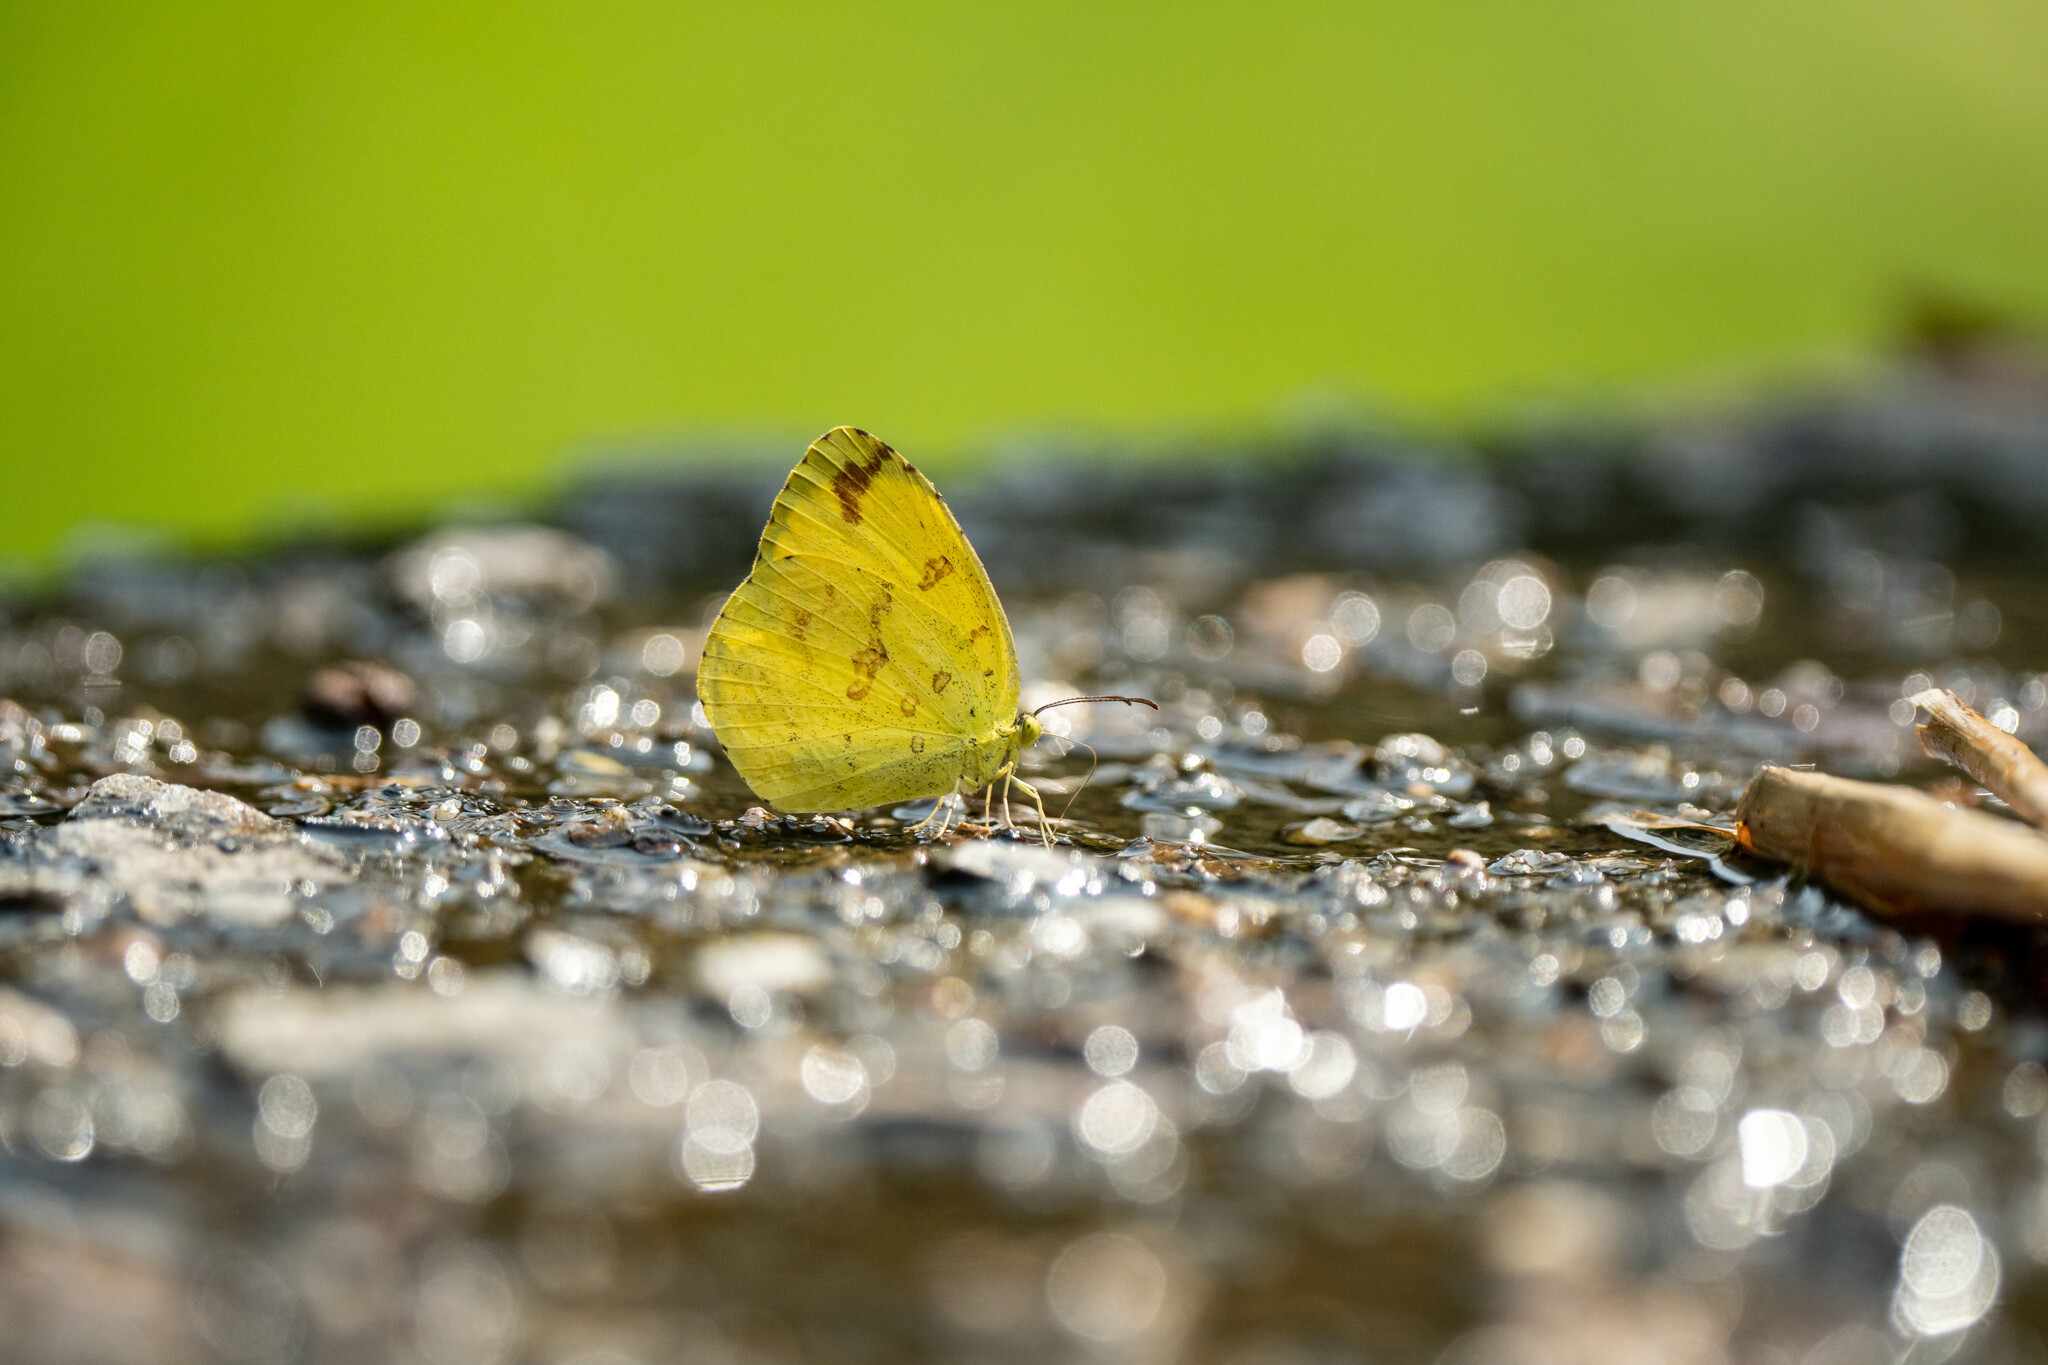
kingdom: Animalia
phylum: Arthropoda
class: Insecta
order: Lepidoptera
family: Pieridae
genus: Eurema
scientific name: Eurema hecabe
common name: Pale grass yellow
